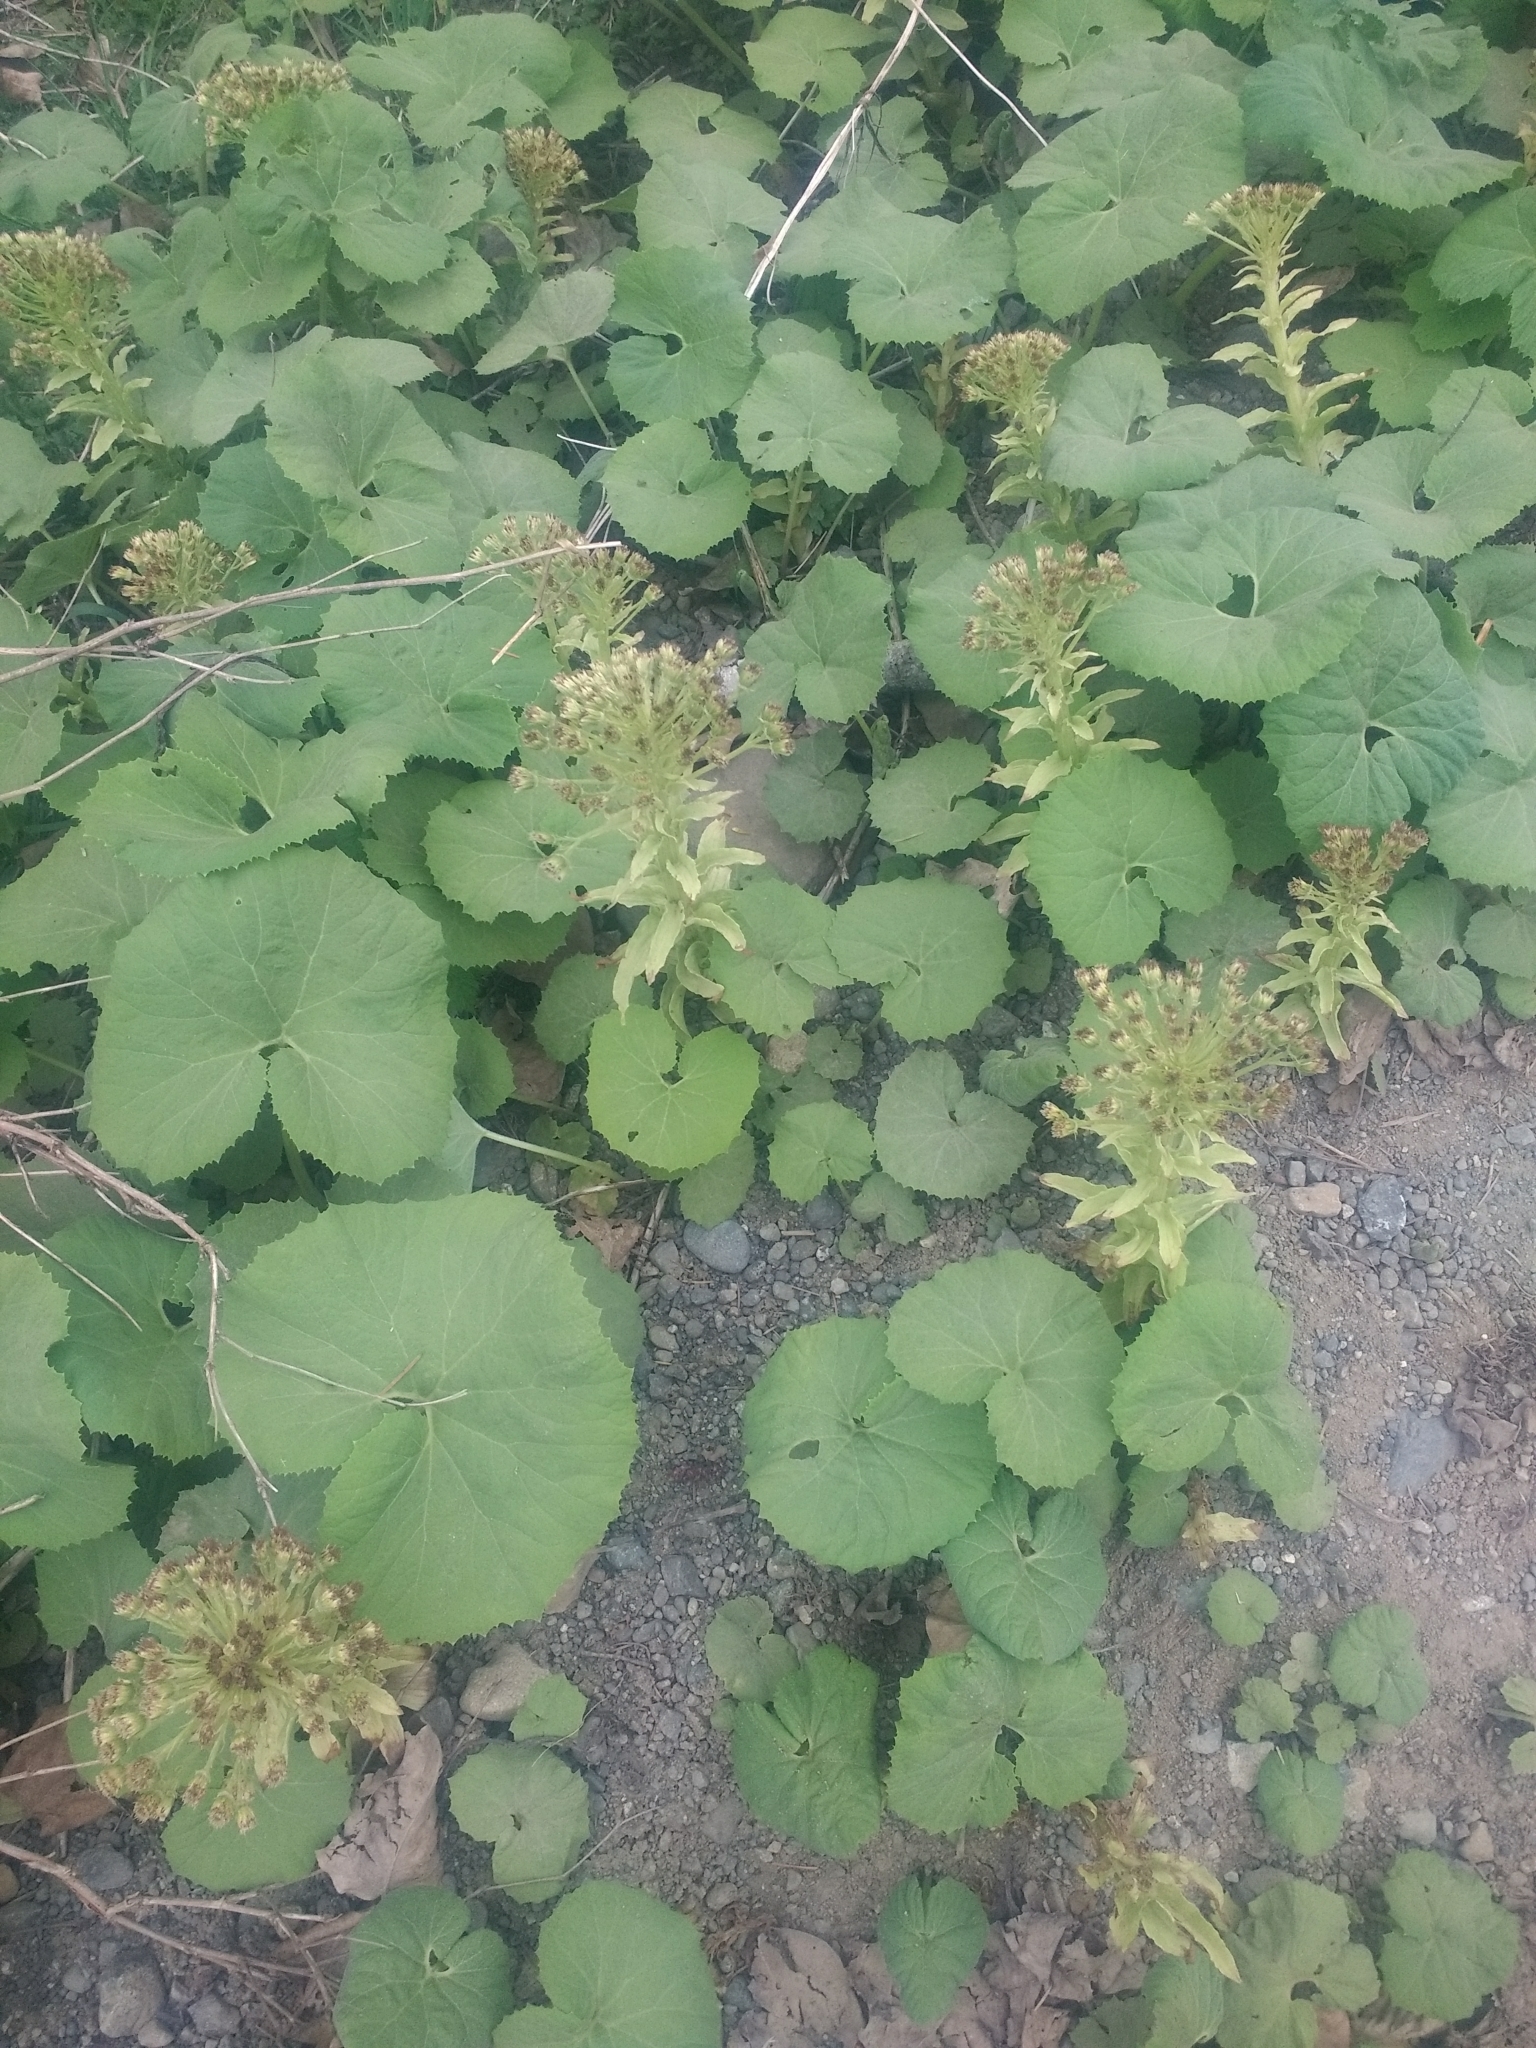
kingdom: Plantae
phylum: Tracheophyta
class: Magnoliopsida
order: Asterales
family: Asteraceae
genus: Petasites
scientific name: Petasites japonicus
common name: Giant butterbur
